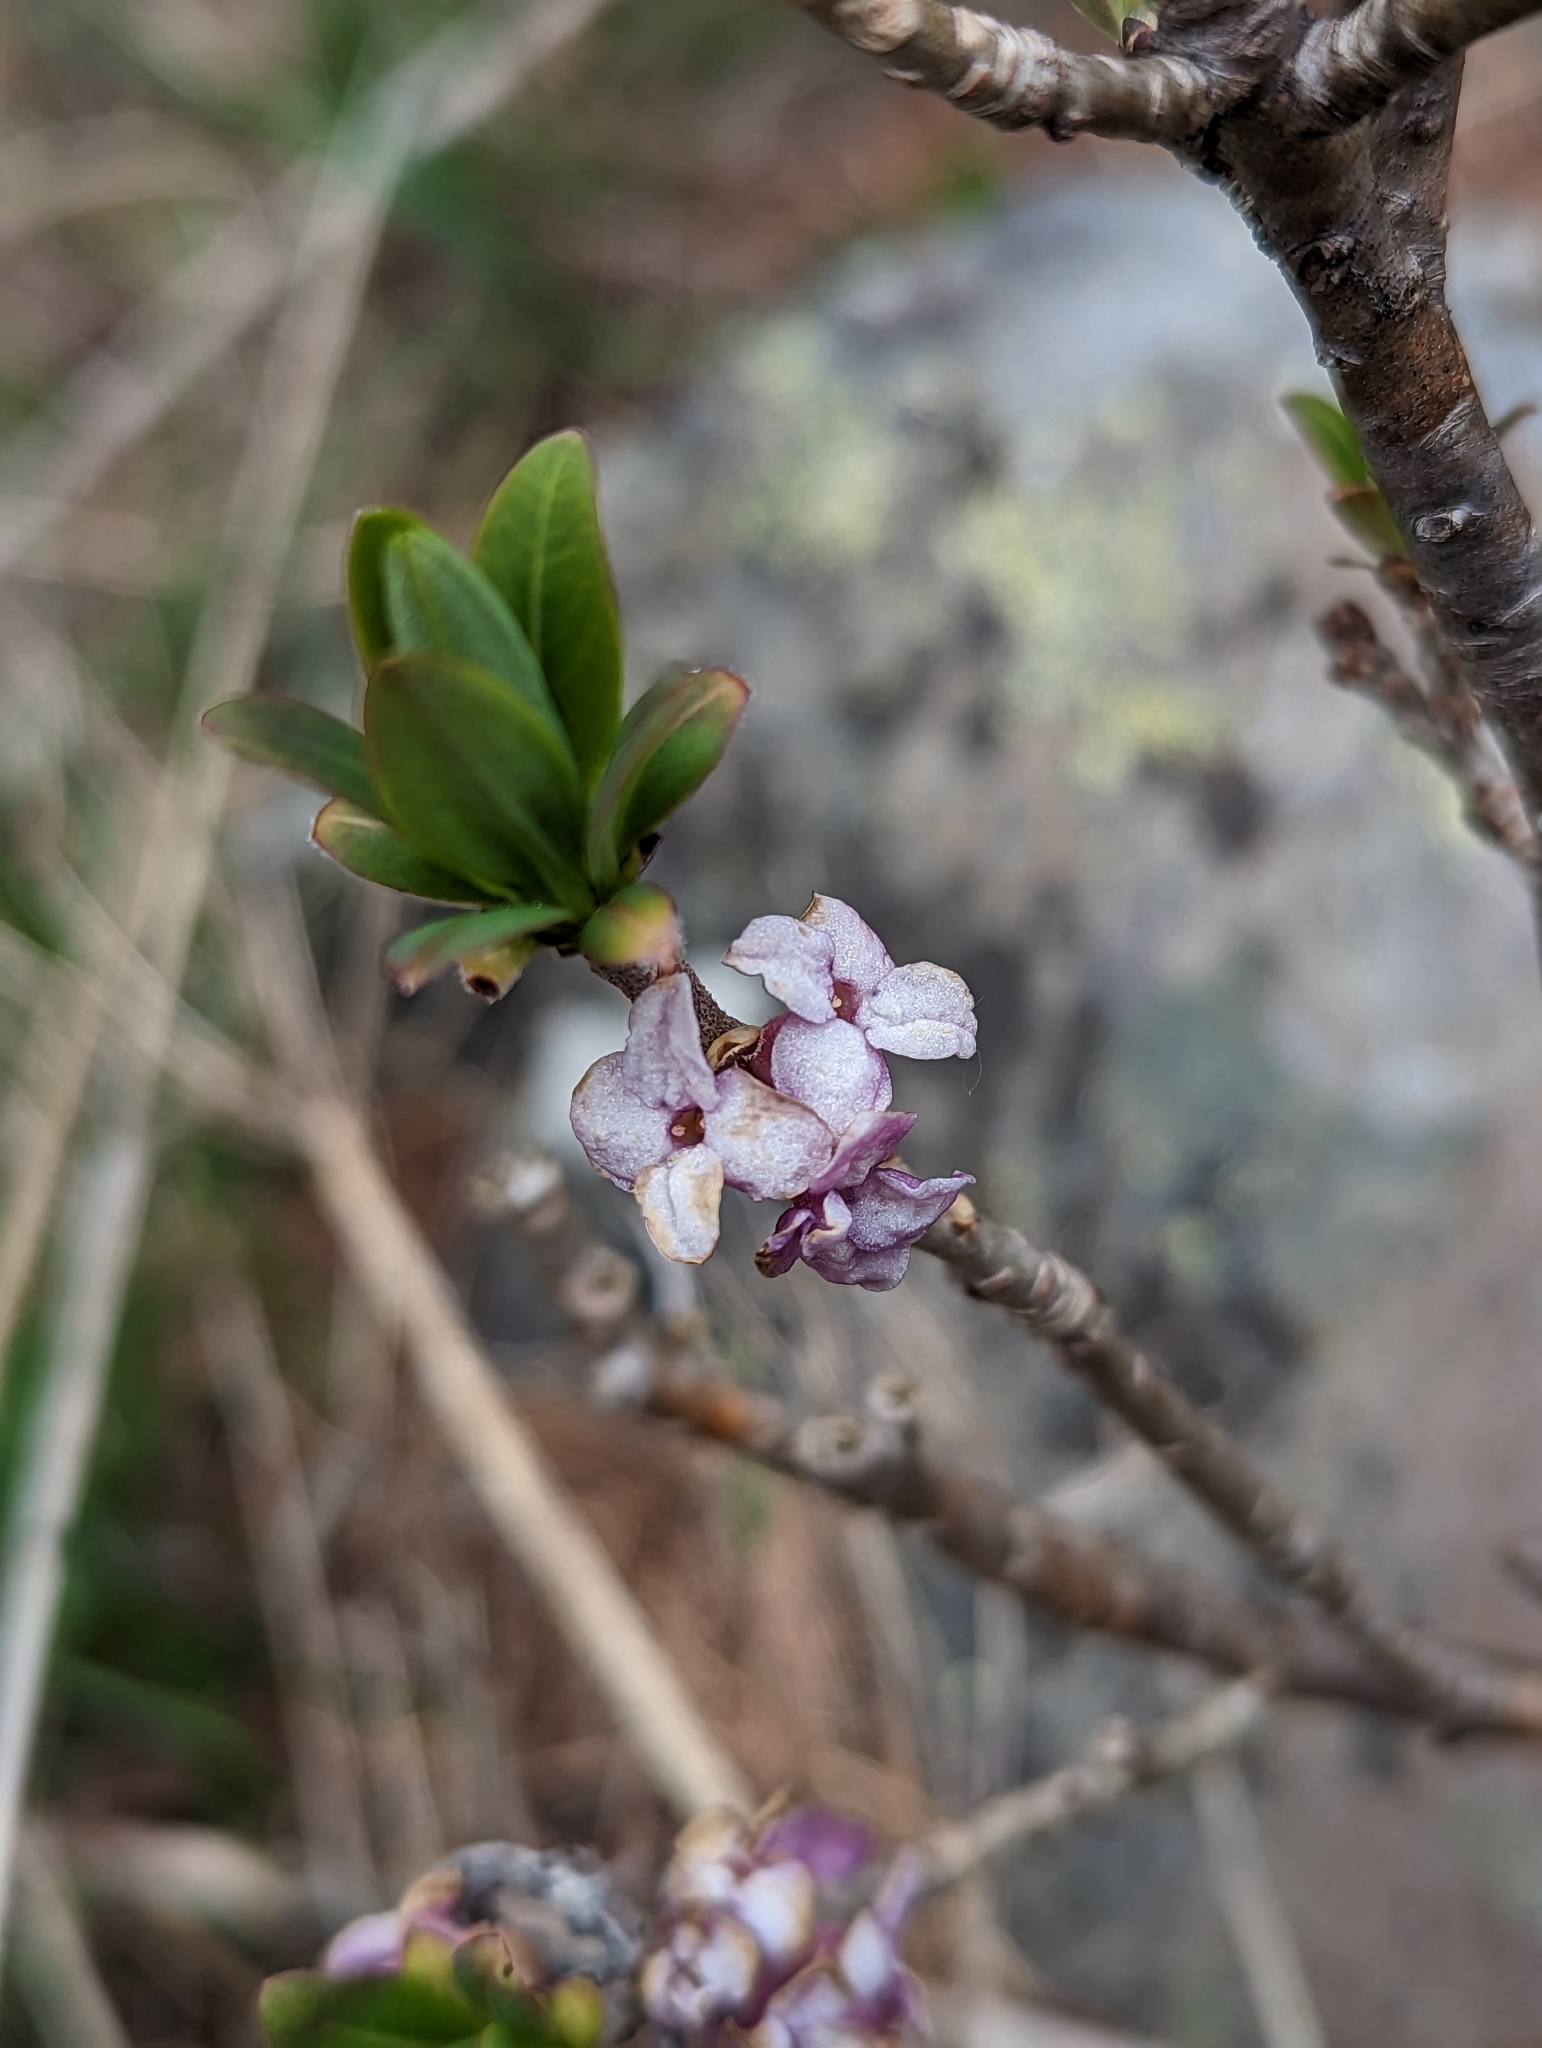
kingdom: Plantae
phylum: Tracheophyta
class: Magnoliopsida
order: Malvales
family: Thymelaeaceae
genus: Daphne
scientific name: Daphne mezereum
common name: Mezereon
